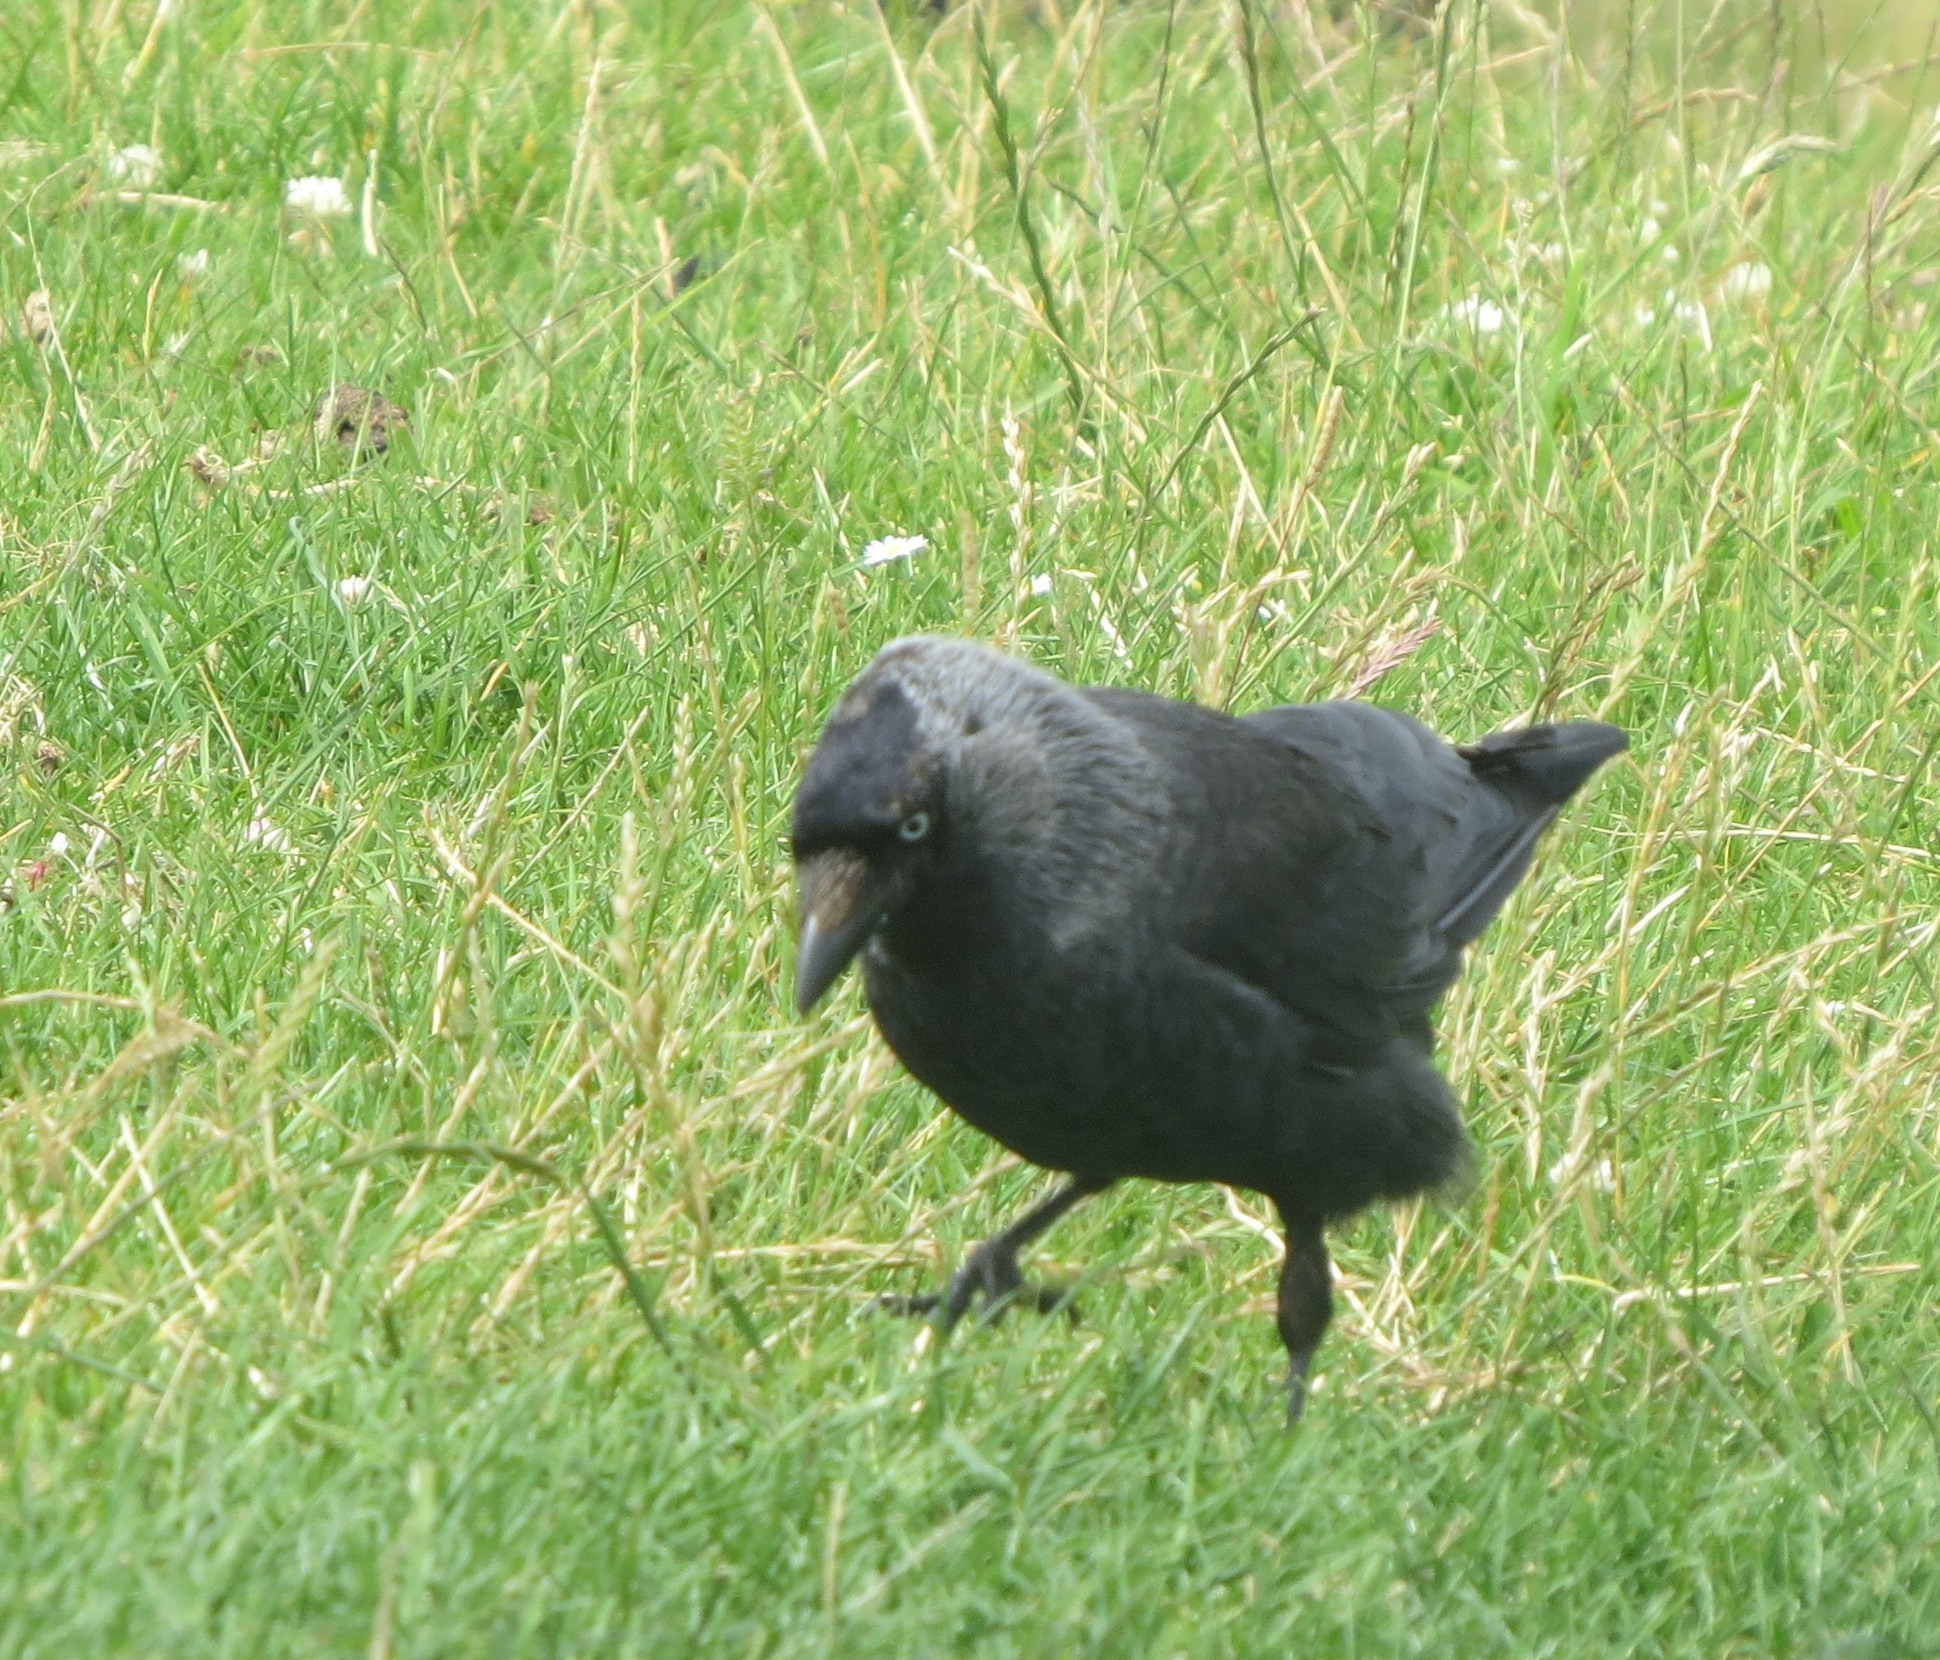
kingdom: Animalia
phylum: Chordata
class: Aves
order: Passeriformes
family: Corvidae
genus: Coloeus
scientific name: Coloeus monedula
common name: Western jackdaw
